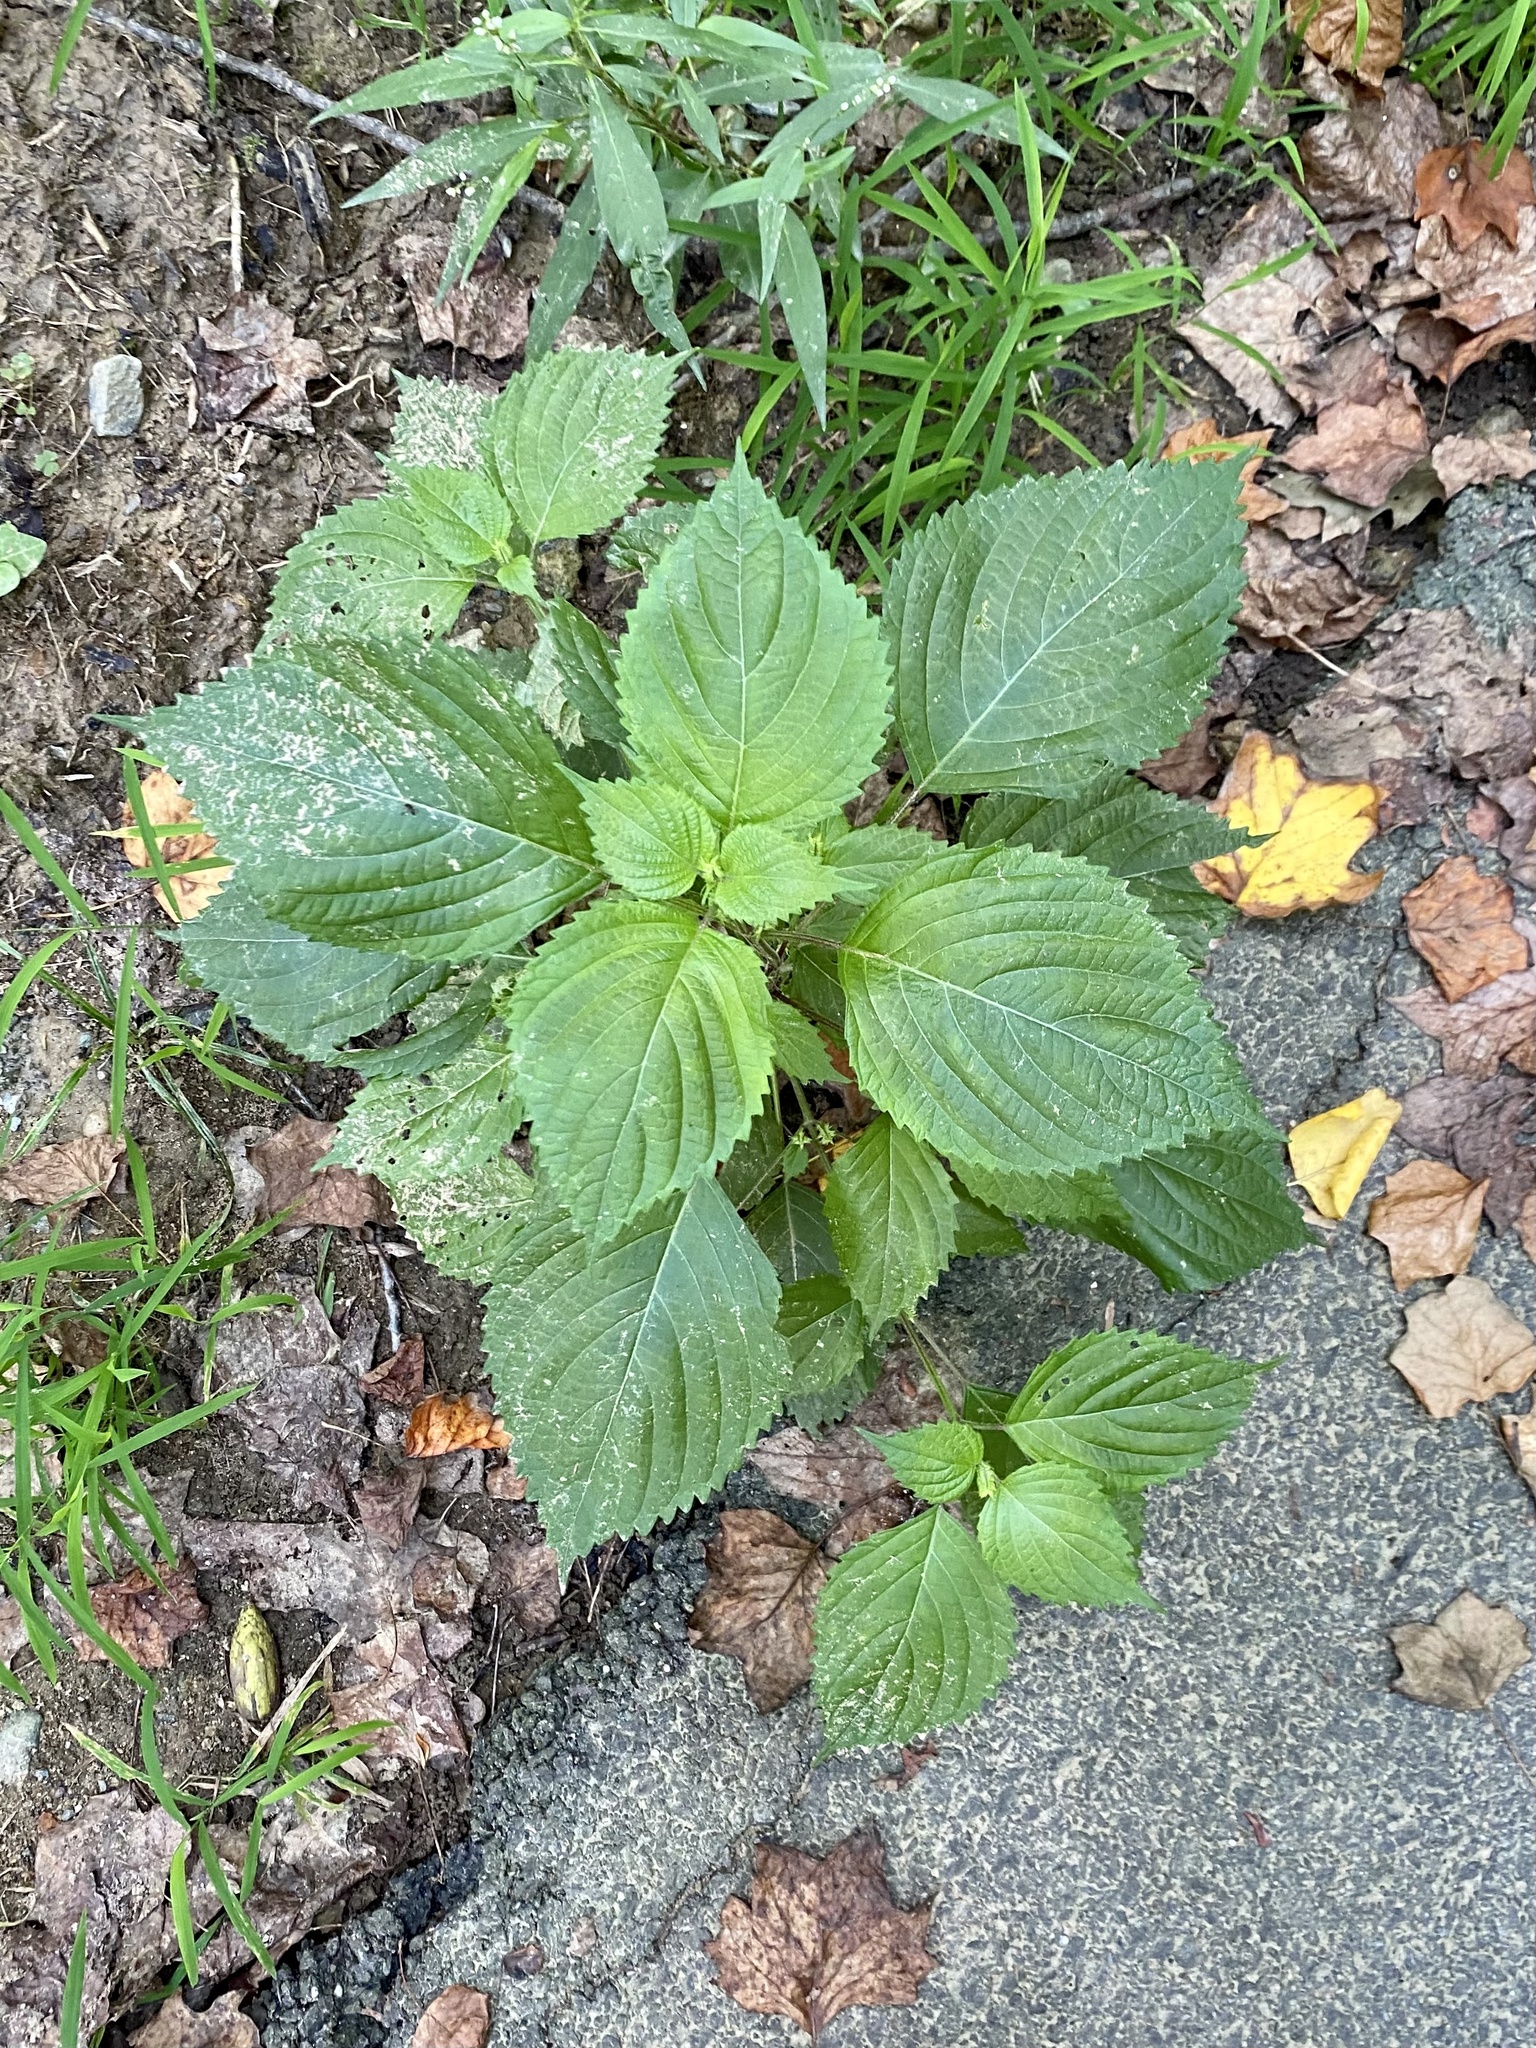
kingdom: Plantae
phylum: Tracheophyta
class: Magnoliopsida
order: Lamiales
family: Lamiaceae
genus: Perilla
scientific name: Perilla frutescens
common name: Perilla
